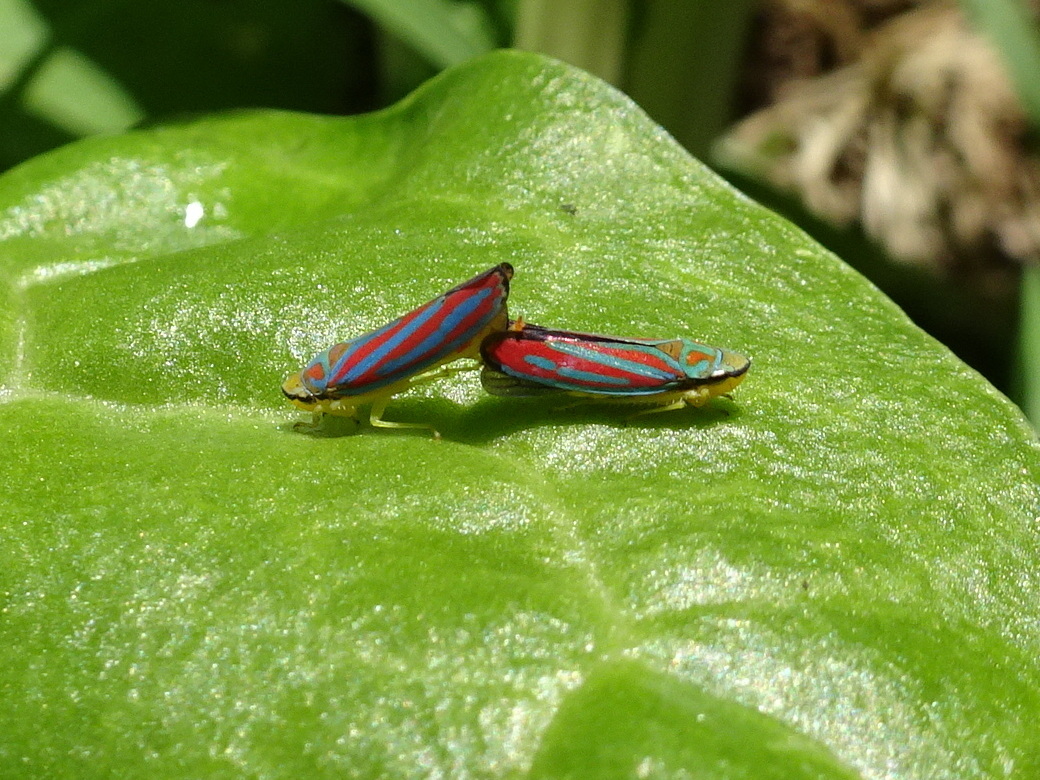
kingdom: Animalia
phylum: Arthropoda
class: Insecta
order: Hemiptera
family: Cicadellidae
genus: Graphocephala
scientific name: Graphocephala coccinea
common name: Candy-striped leafhopper
